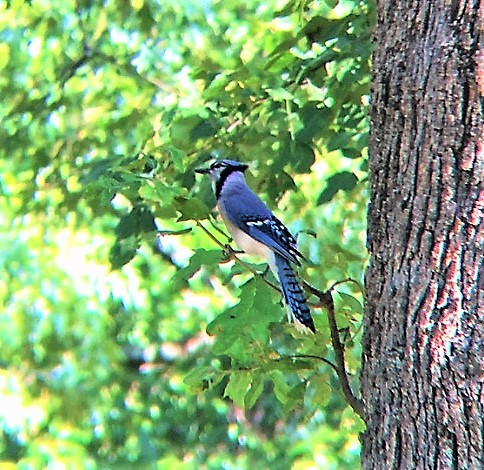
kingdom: Animalia
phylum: Chordata
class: Aves
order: Passeriformes
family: Corvidae
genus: Cyanocitta
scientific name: Cyanocitta cristata
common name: Blue jay
